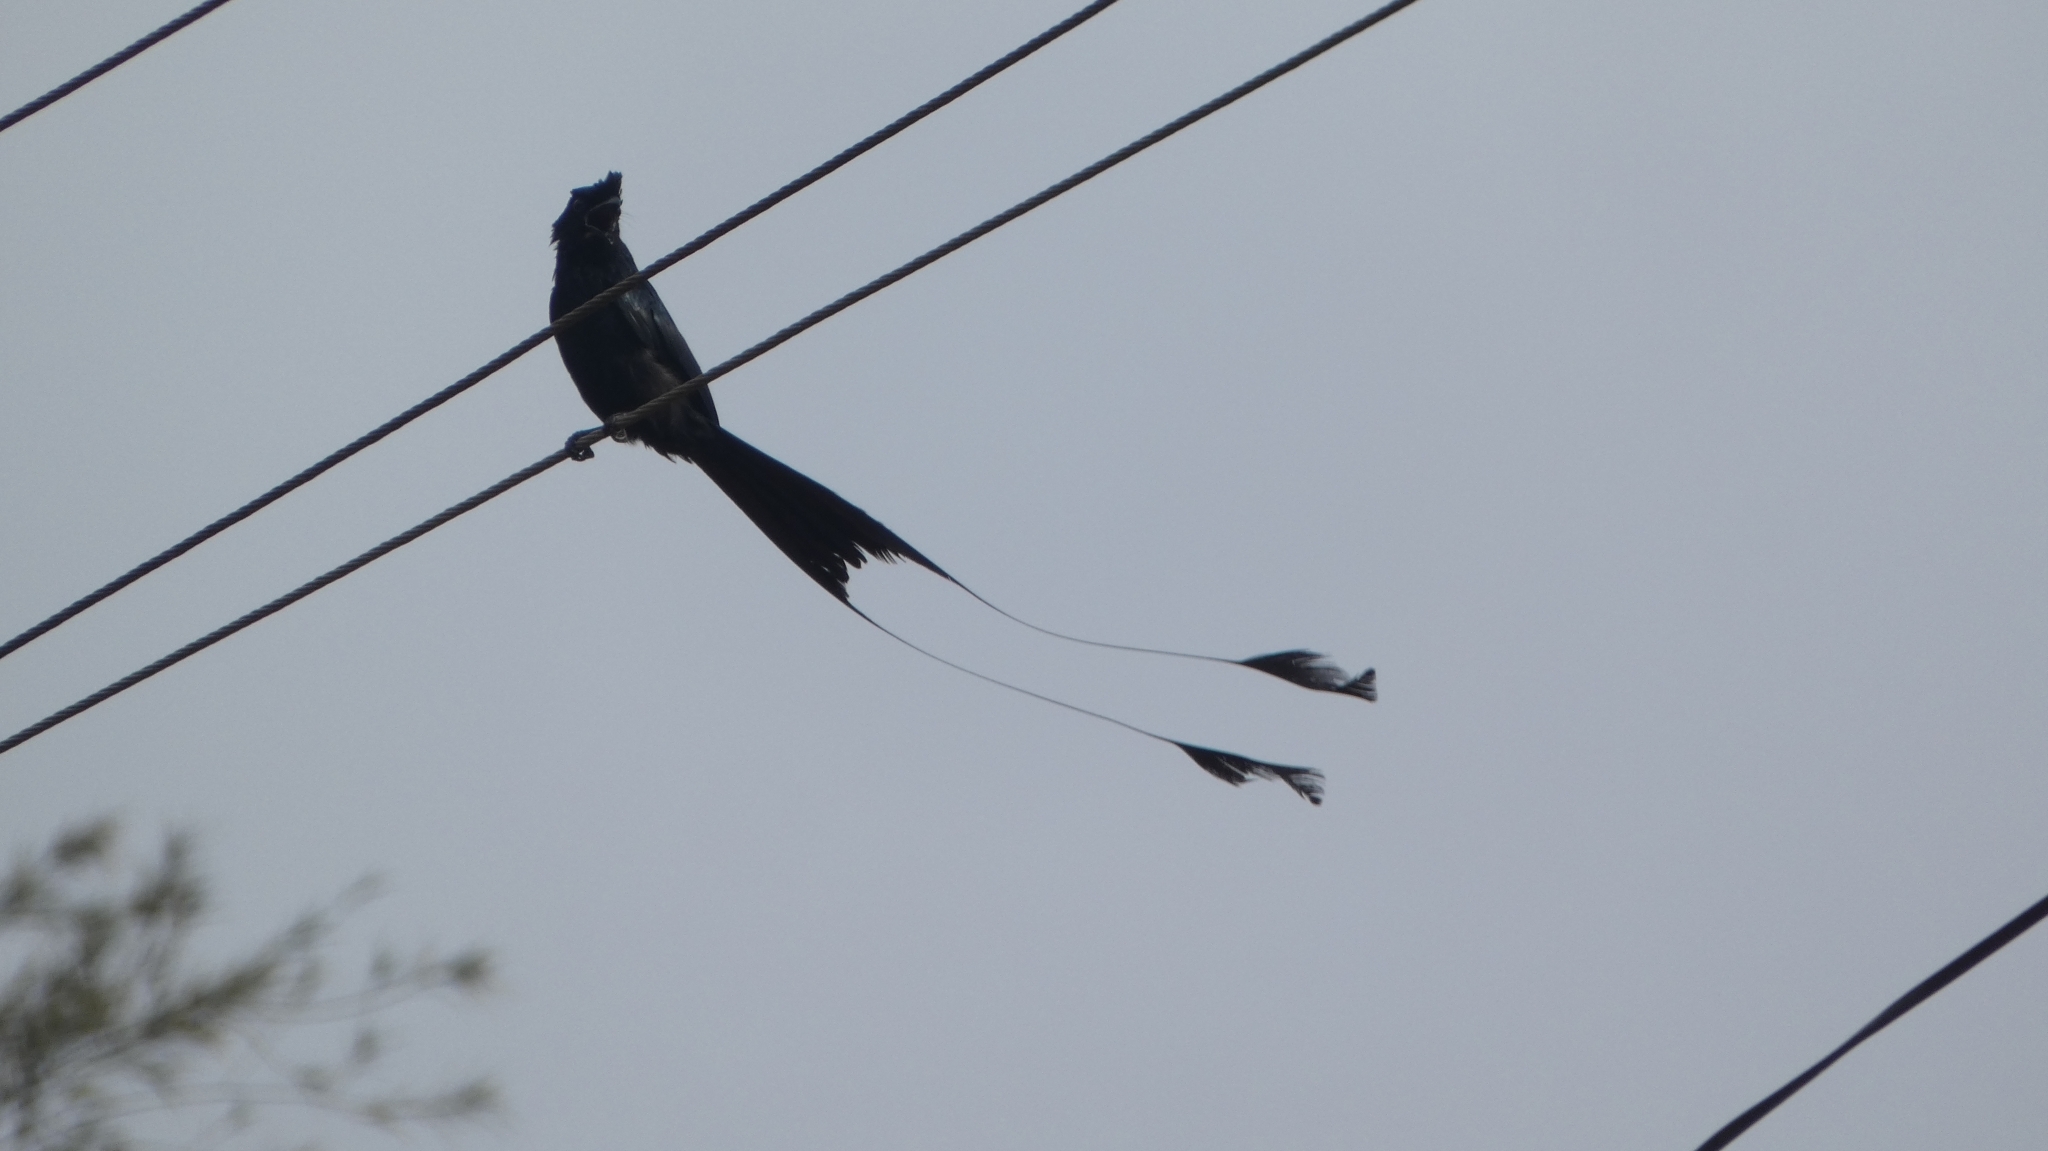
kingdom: Animalia
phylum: Chordata
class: Aves
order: Passeriformes
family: Dicruridae
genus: Dicrurus
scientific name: Dicrurus paradiseus
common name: Greater racket-tailed drongo
